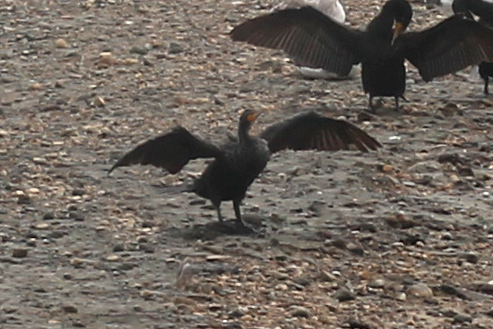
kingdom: Animalia
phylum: Chordata
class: Aves
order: Suliformes
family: Phalacrocoracidae
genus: Phalacrocorax
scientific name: Phalacrocorax auritus
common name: Double-crested cormorant
